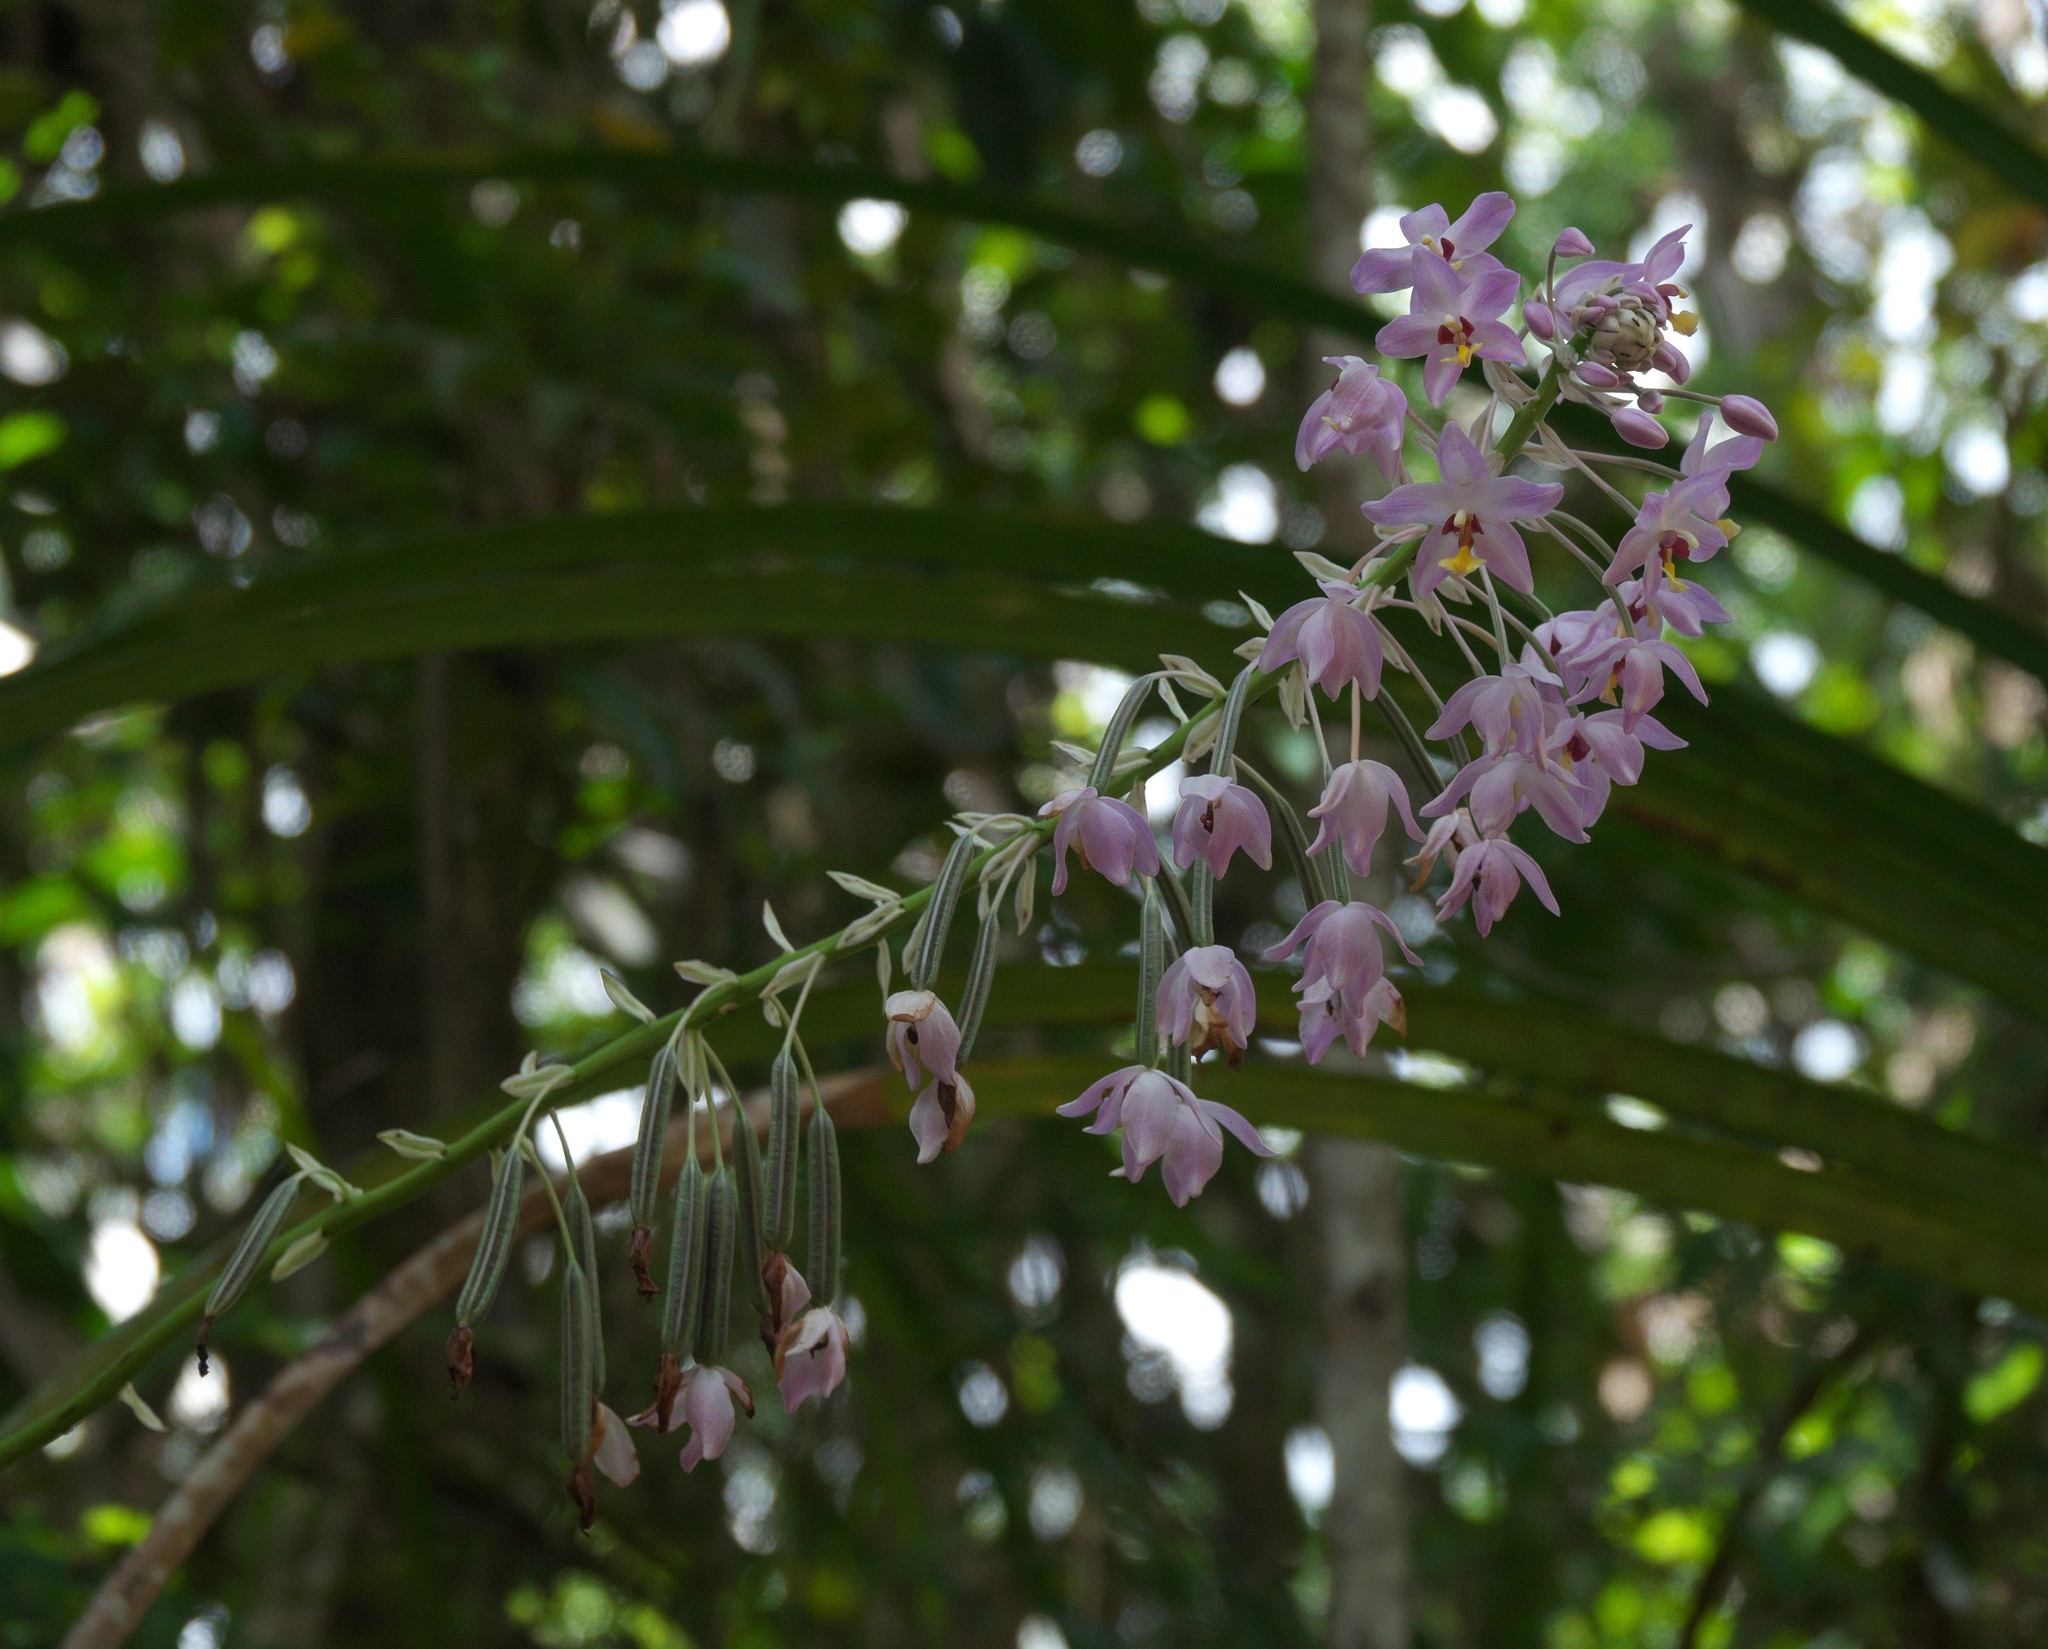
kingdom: Plantae
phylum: Tracheophyta
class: Liliopsida
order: Asparagales
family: Orchidaceae
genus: Spathoglottis
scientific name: Spathoglottis pacifica
